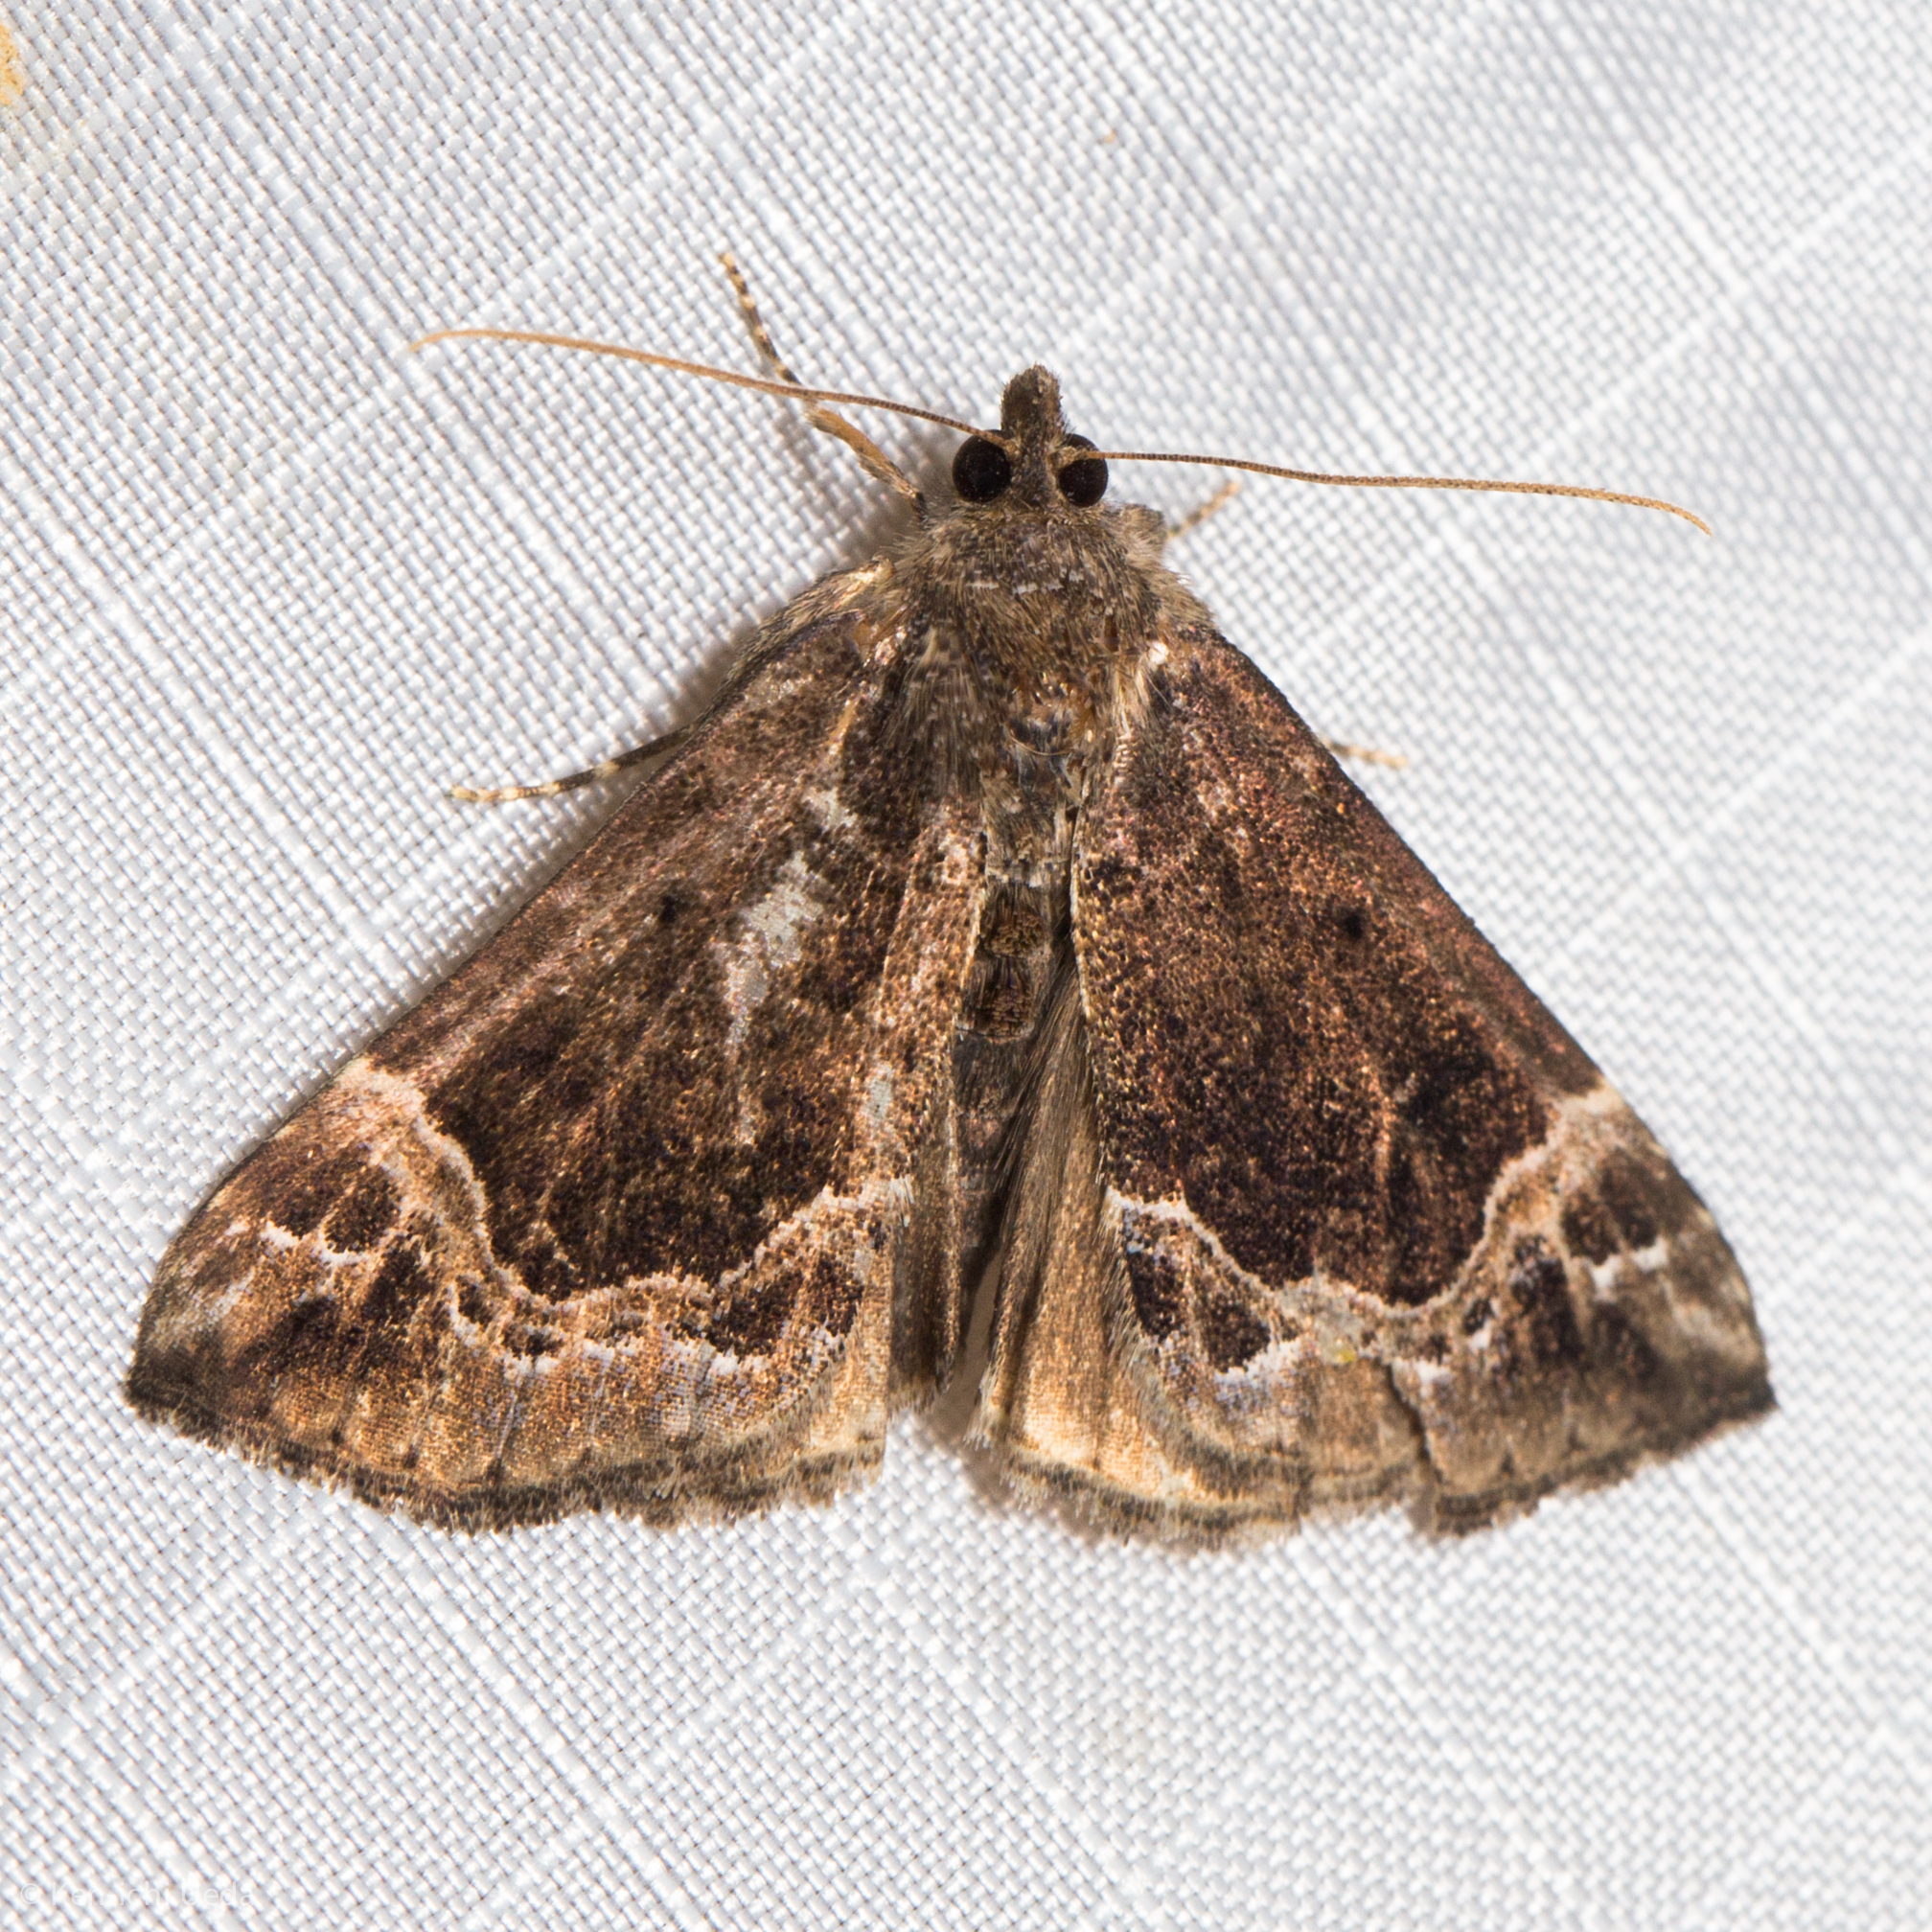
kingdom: Animalia
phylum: Arthropoda
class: Insecta
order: Lepidoptera
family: Erebidae
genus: Hypena
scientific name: Hypena abalienalis
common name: White-lined snout
